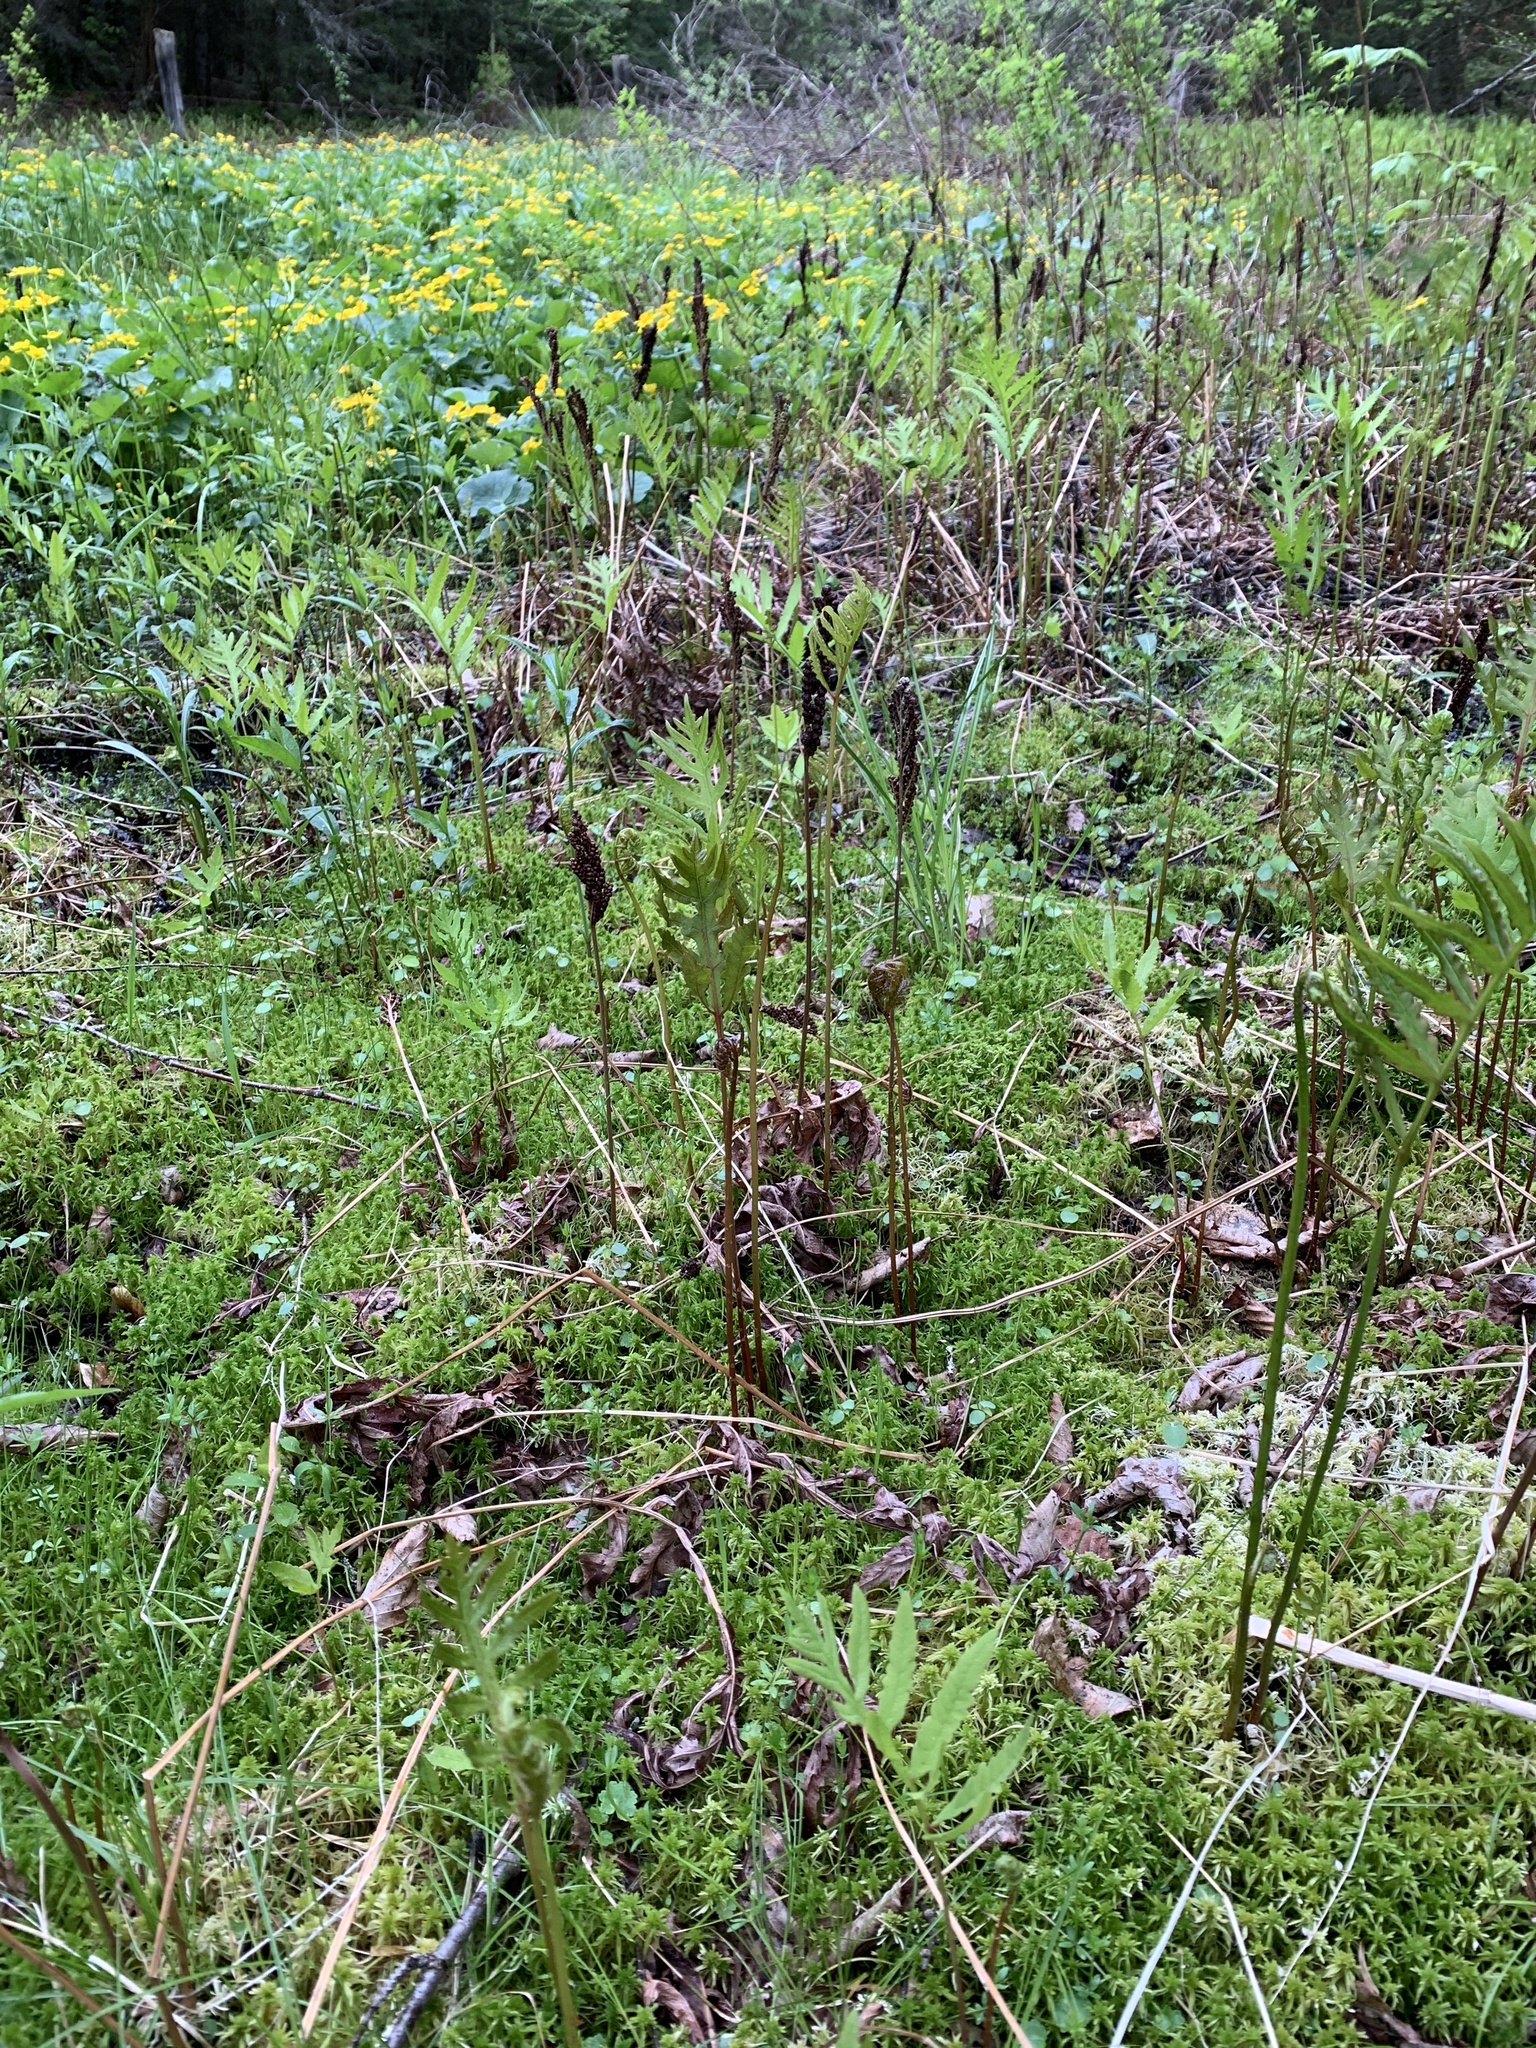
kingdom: Plantae
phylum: Tracheophyta
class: Polypodiopsida
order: Polypodiales
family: Onocleaceae
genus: Onoclea
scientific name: Onoclea sensibilis
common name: Sensitive fern
